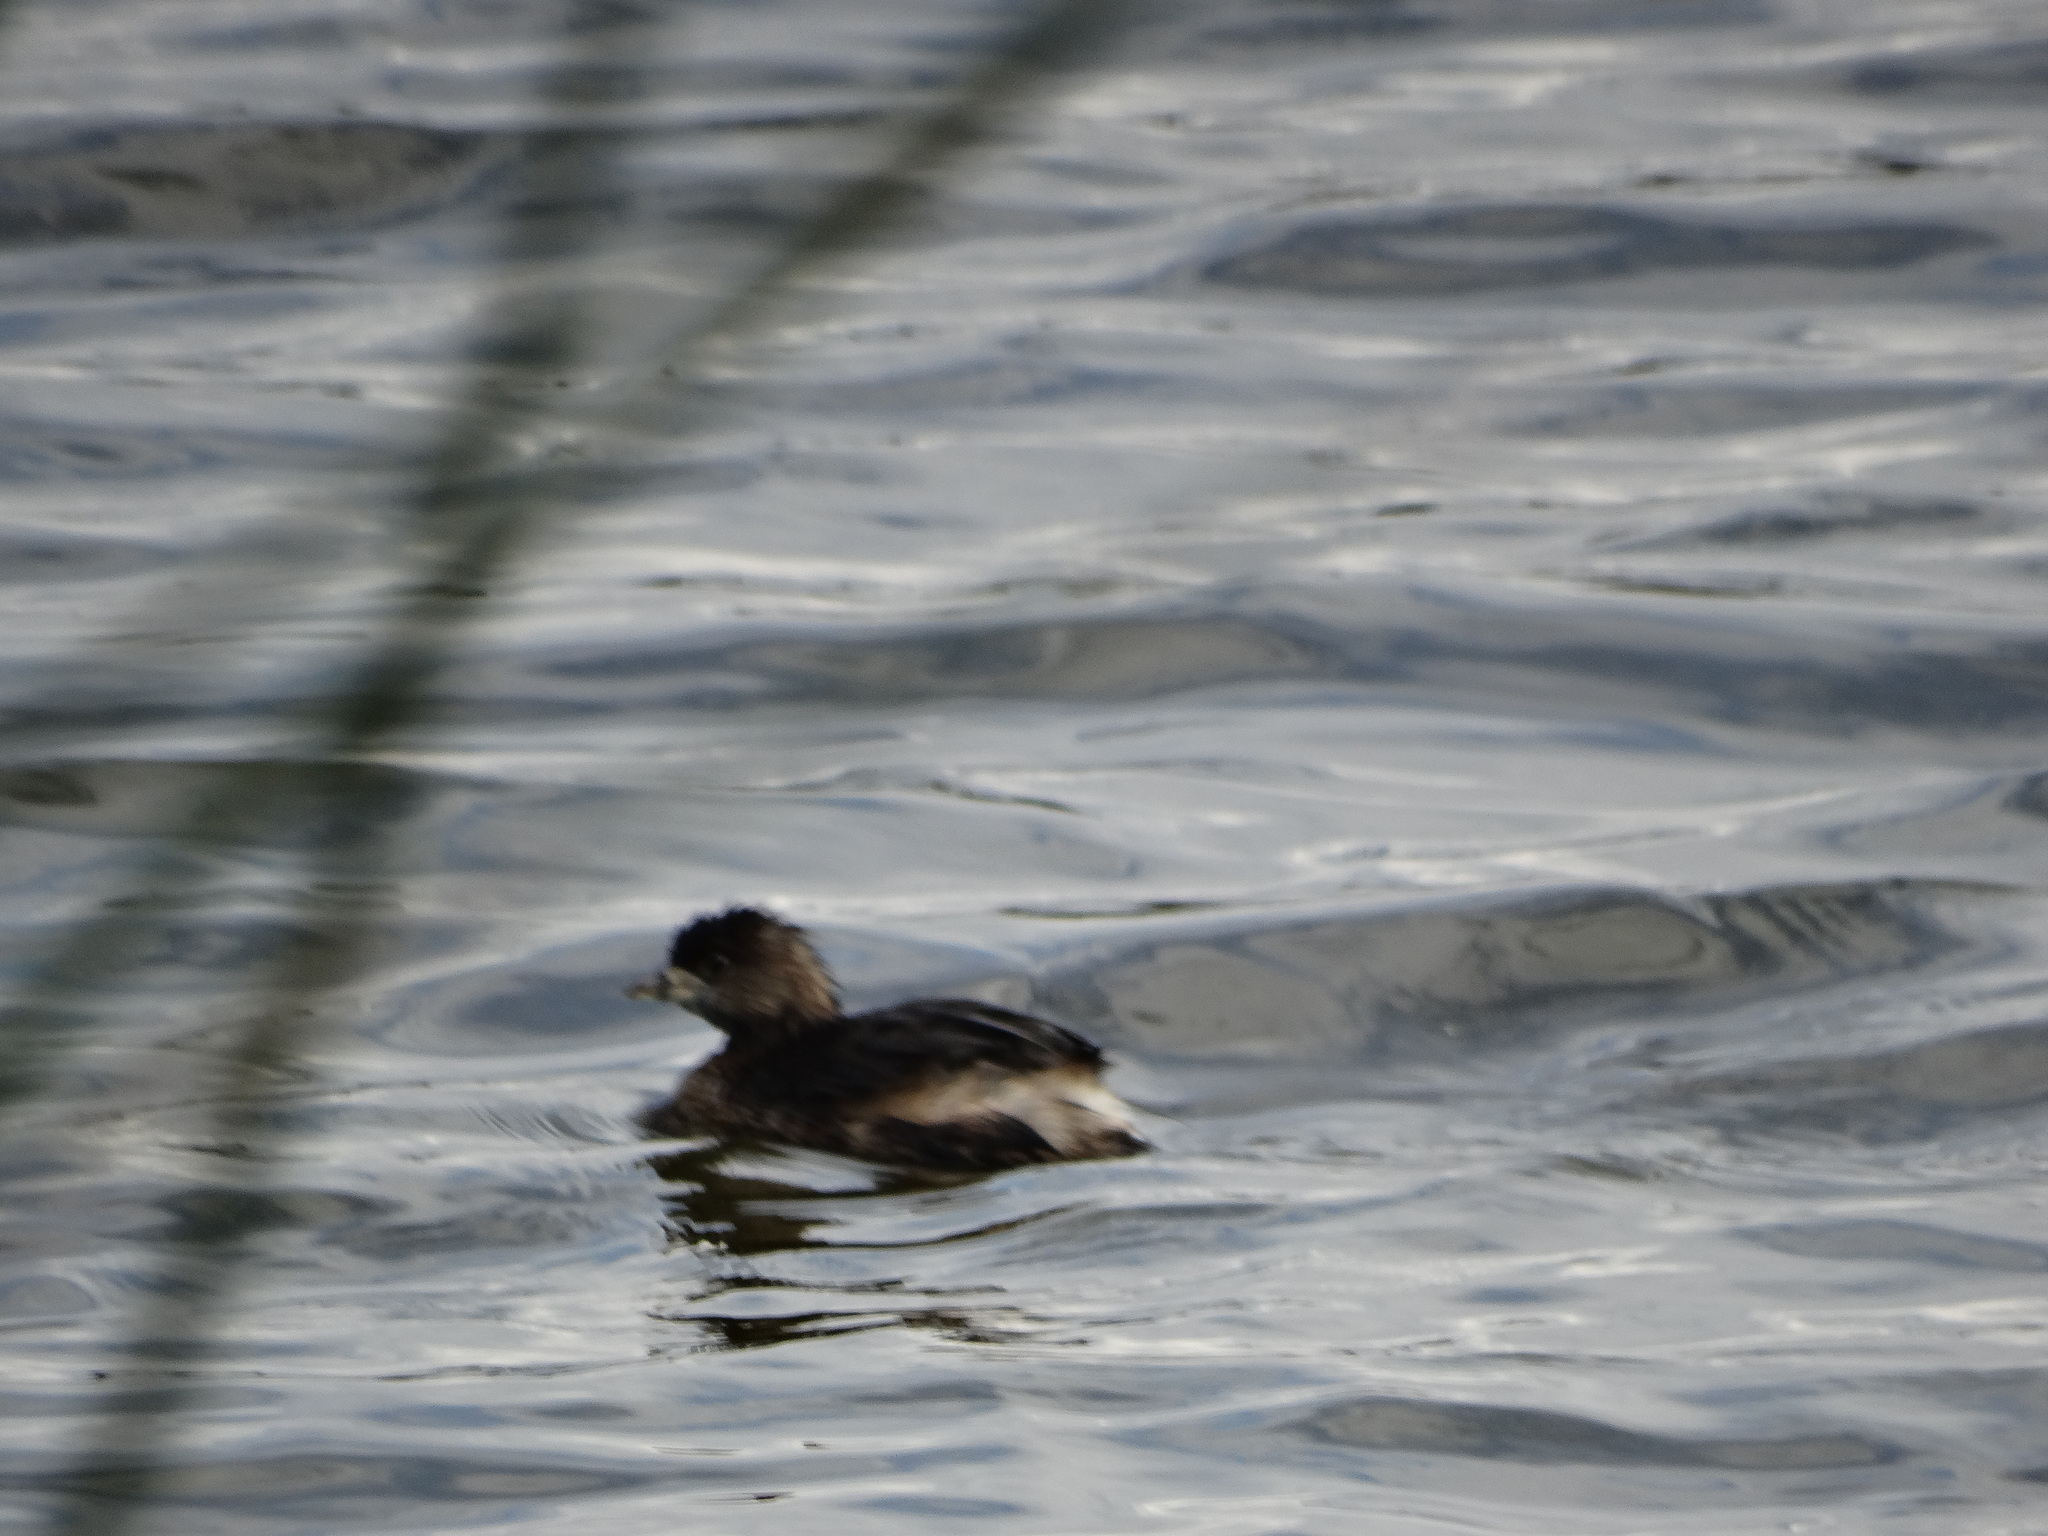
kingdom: Animalia
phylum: Chordata
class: Aves
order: Podicipediformes
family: Podicipedidae
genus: Podilymbus
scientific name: Podilymbus podiceps
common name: Pied-billed grebe
